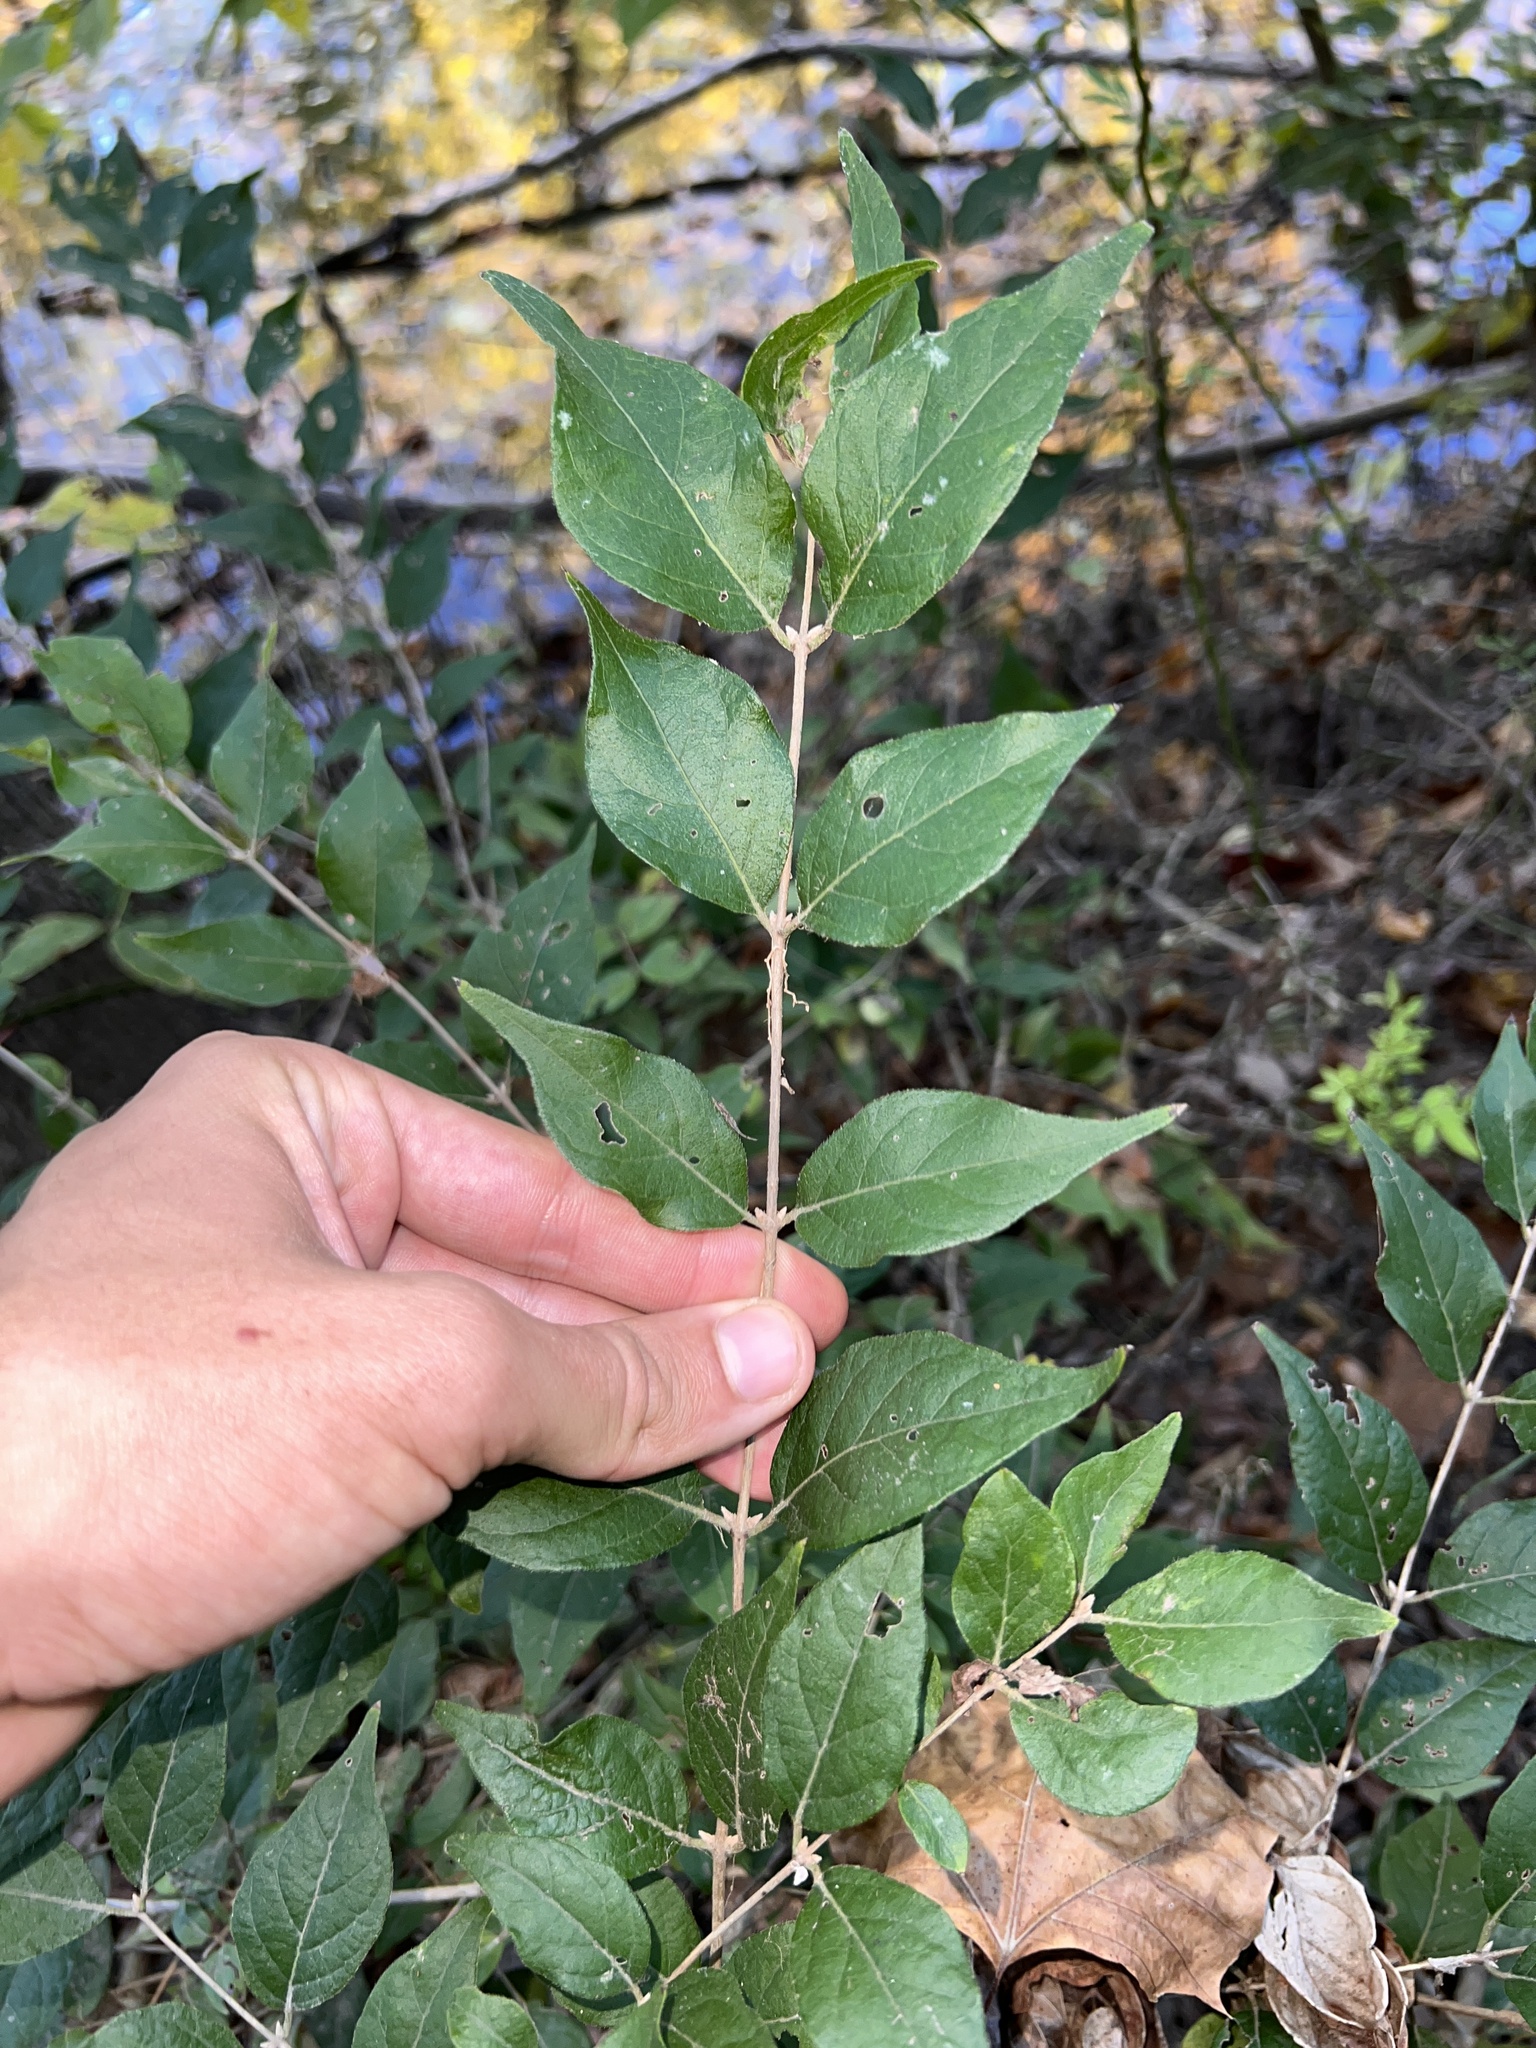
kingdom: Plantae
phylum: Tracheophyta
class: Magnoliopsida
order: Dipsacales
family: Caprifoliaceae
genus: Lonicera
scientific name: Lonicera maackii
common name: Amur honeysuckle
